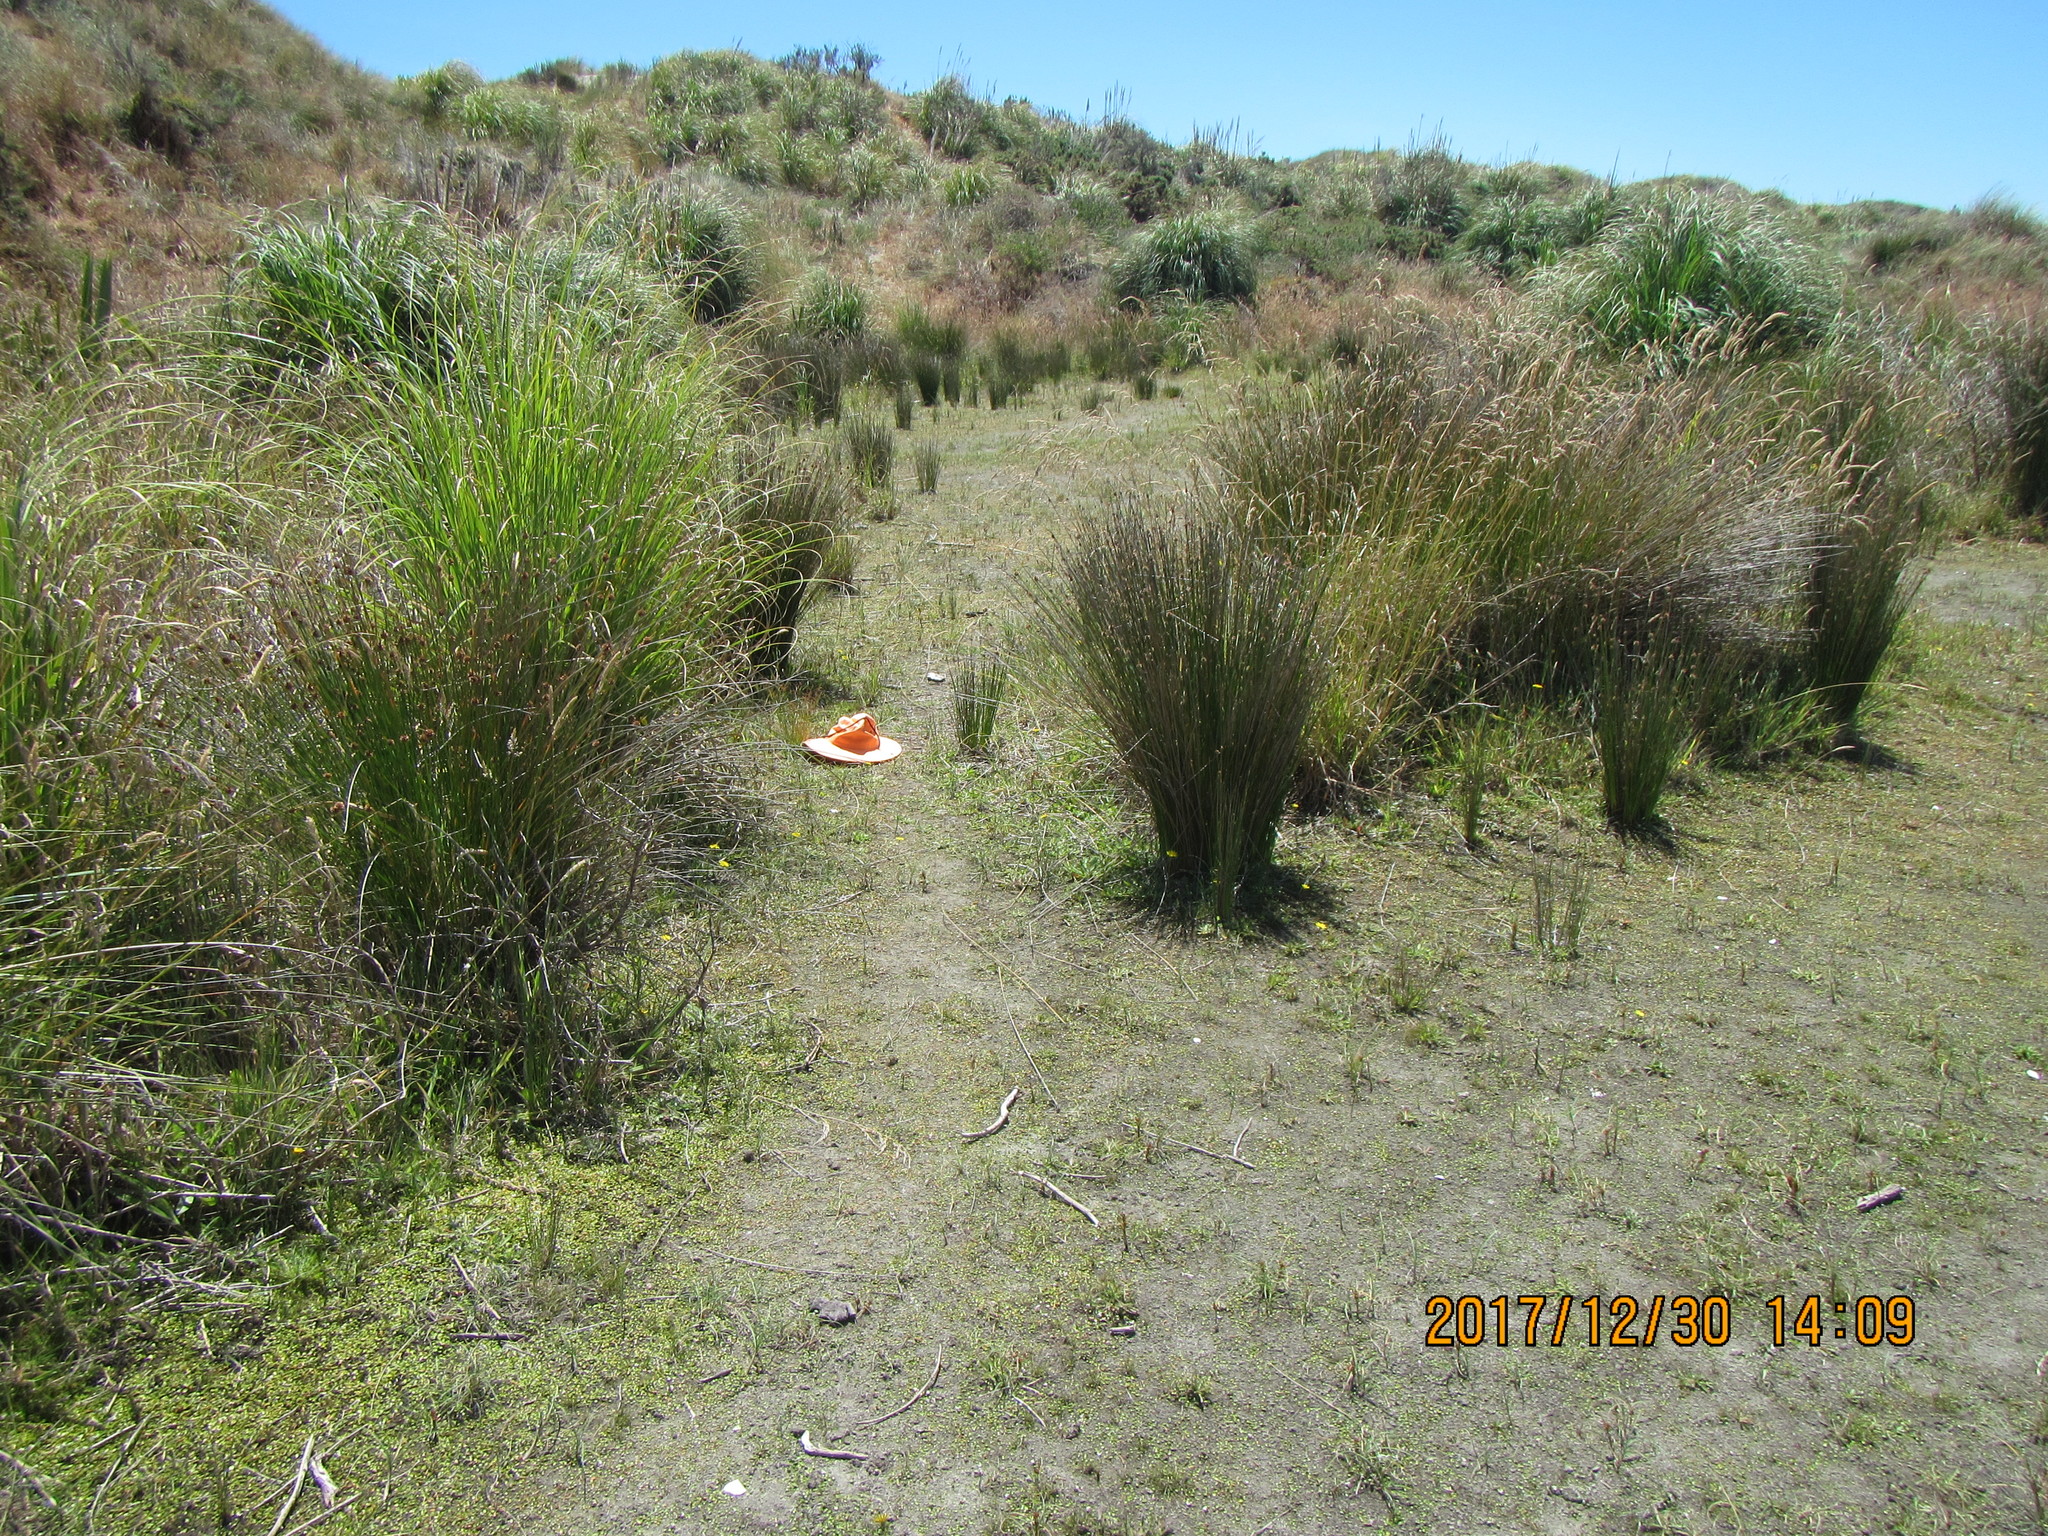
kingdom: Plantae
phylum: Tracheophyta
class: Liliopsida
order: Poales
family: Juncaceae
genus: Juncus
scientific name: Juncus tenuis
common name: Slender rush
